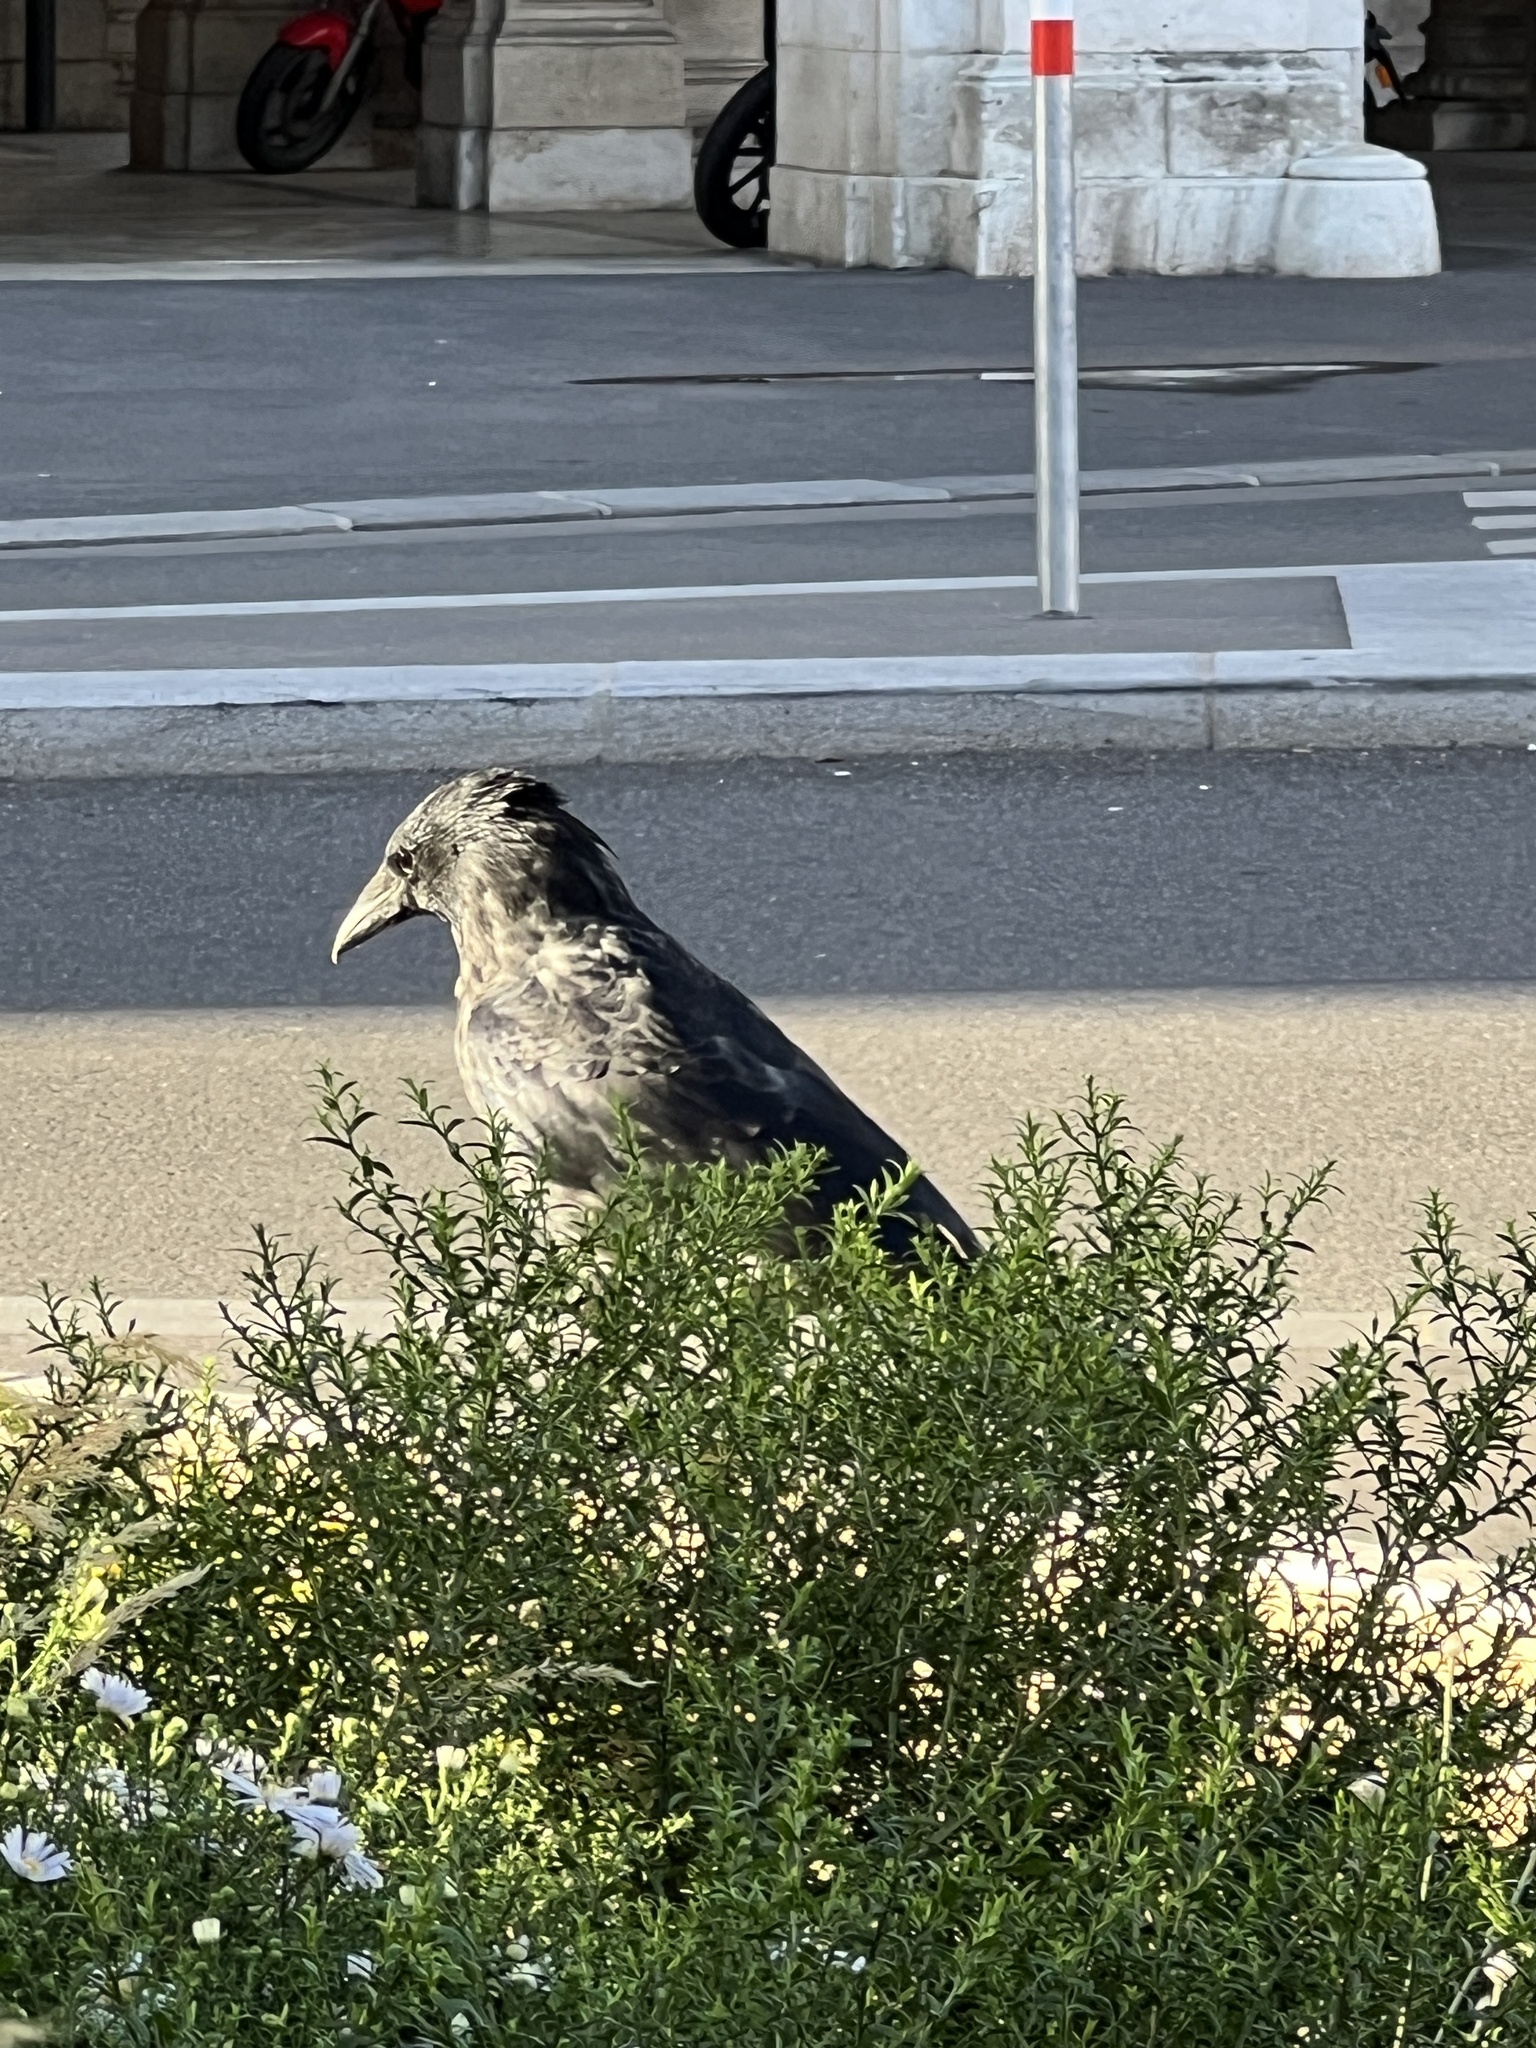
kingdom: Animalia
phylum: Chordata
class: Aves
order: Passeriformes
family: Corvidae
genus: Corvus
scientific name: Corvus
